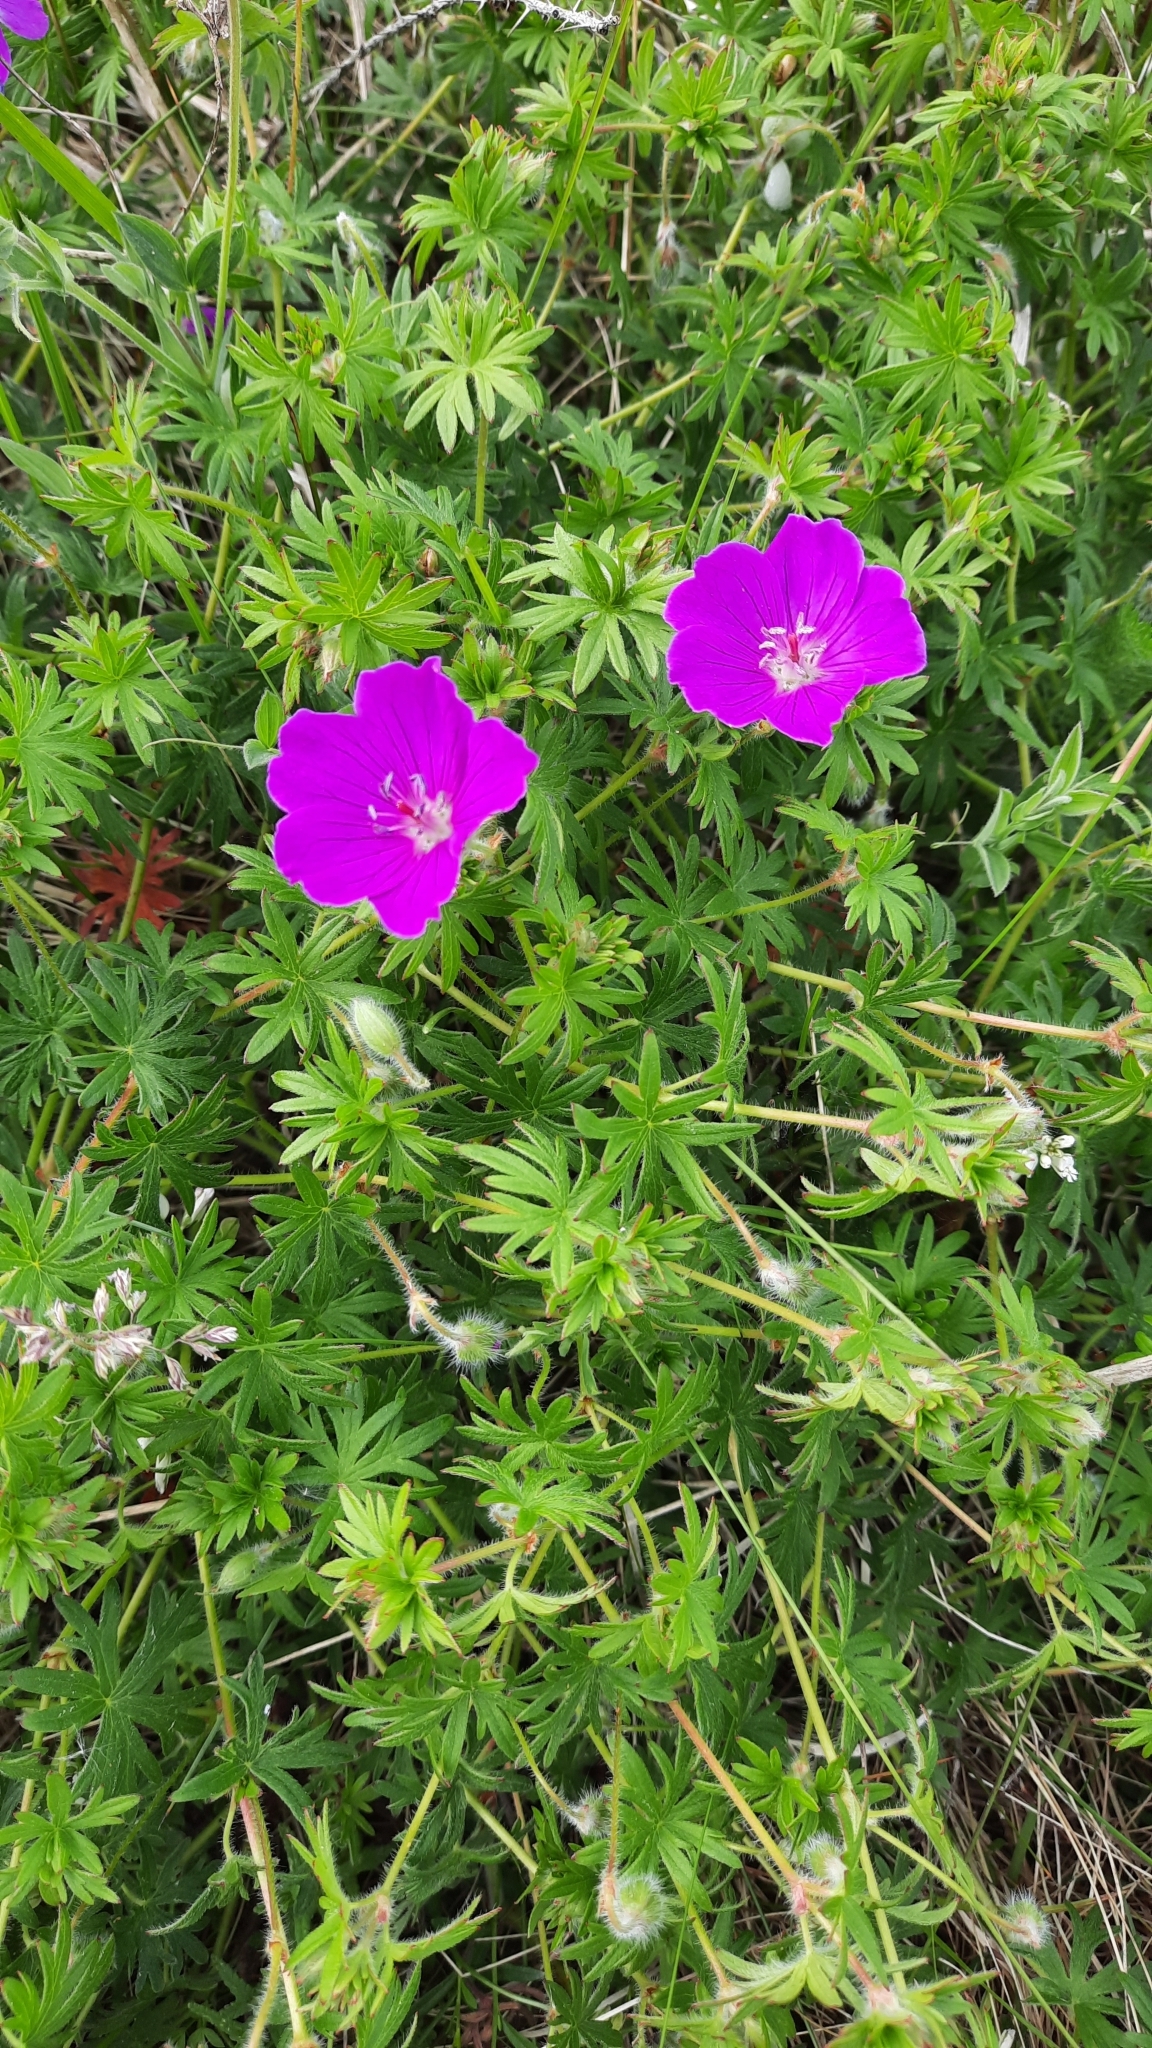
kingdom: Plantae
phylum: Tracheophyta
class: Magnoliopsida
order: Geraniales
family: Geraniaceae
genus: Geranium
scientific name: Geranium sanguineum
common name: Bloody crane's-bill
